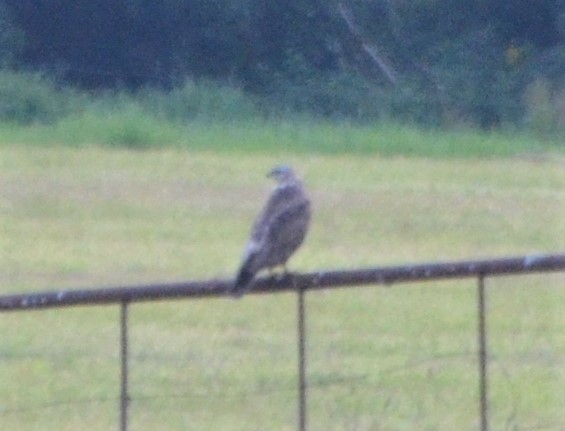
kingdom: Animalia
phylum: Chordata
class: Aves
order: Accipitriformes
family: Accipitridae
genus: Buteo
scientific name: Buteo buteo
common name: Common buzzard
